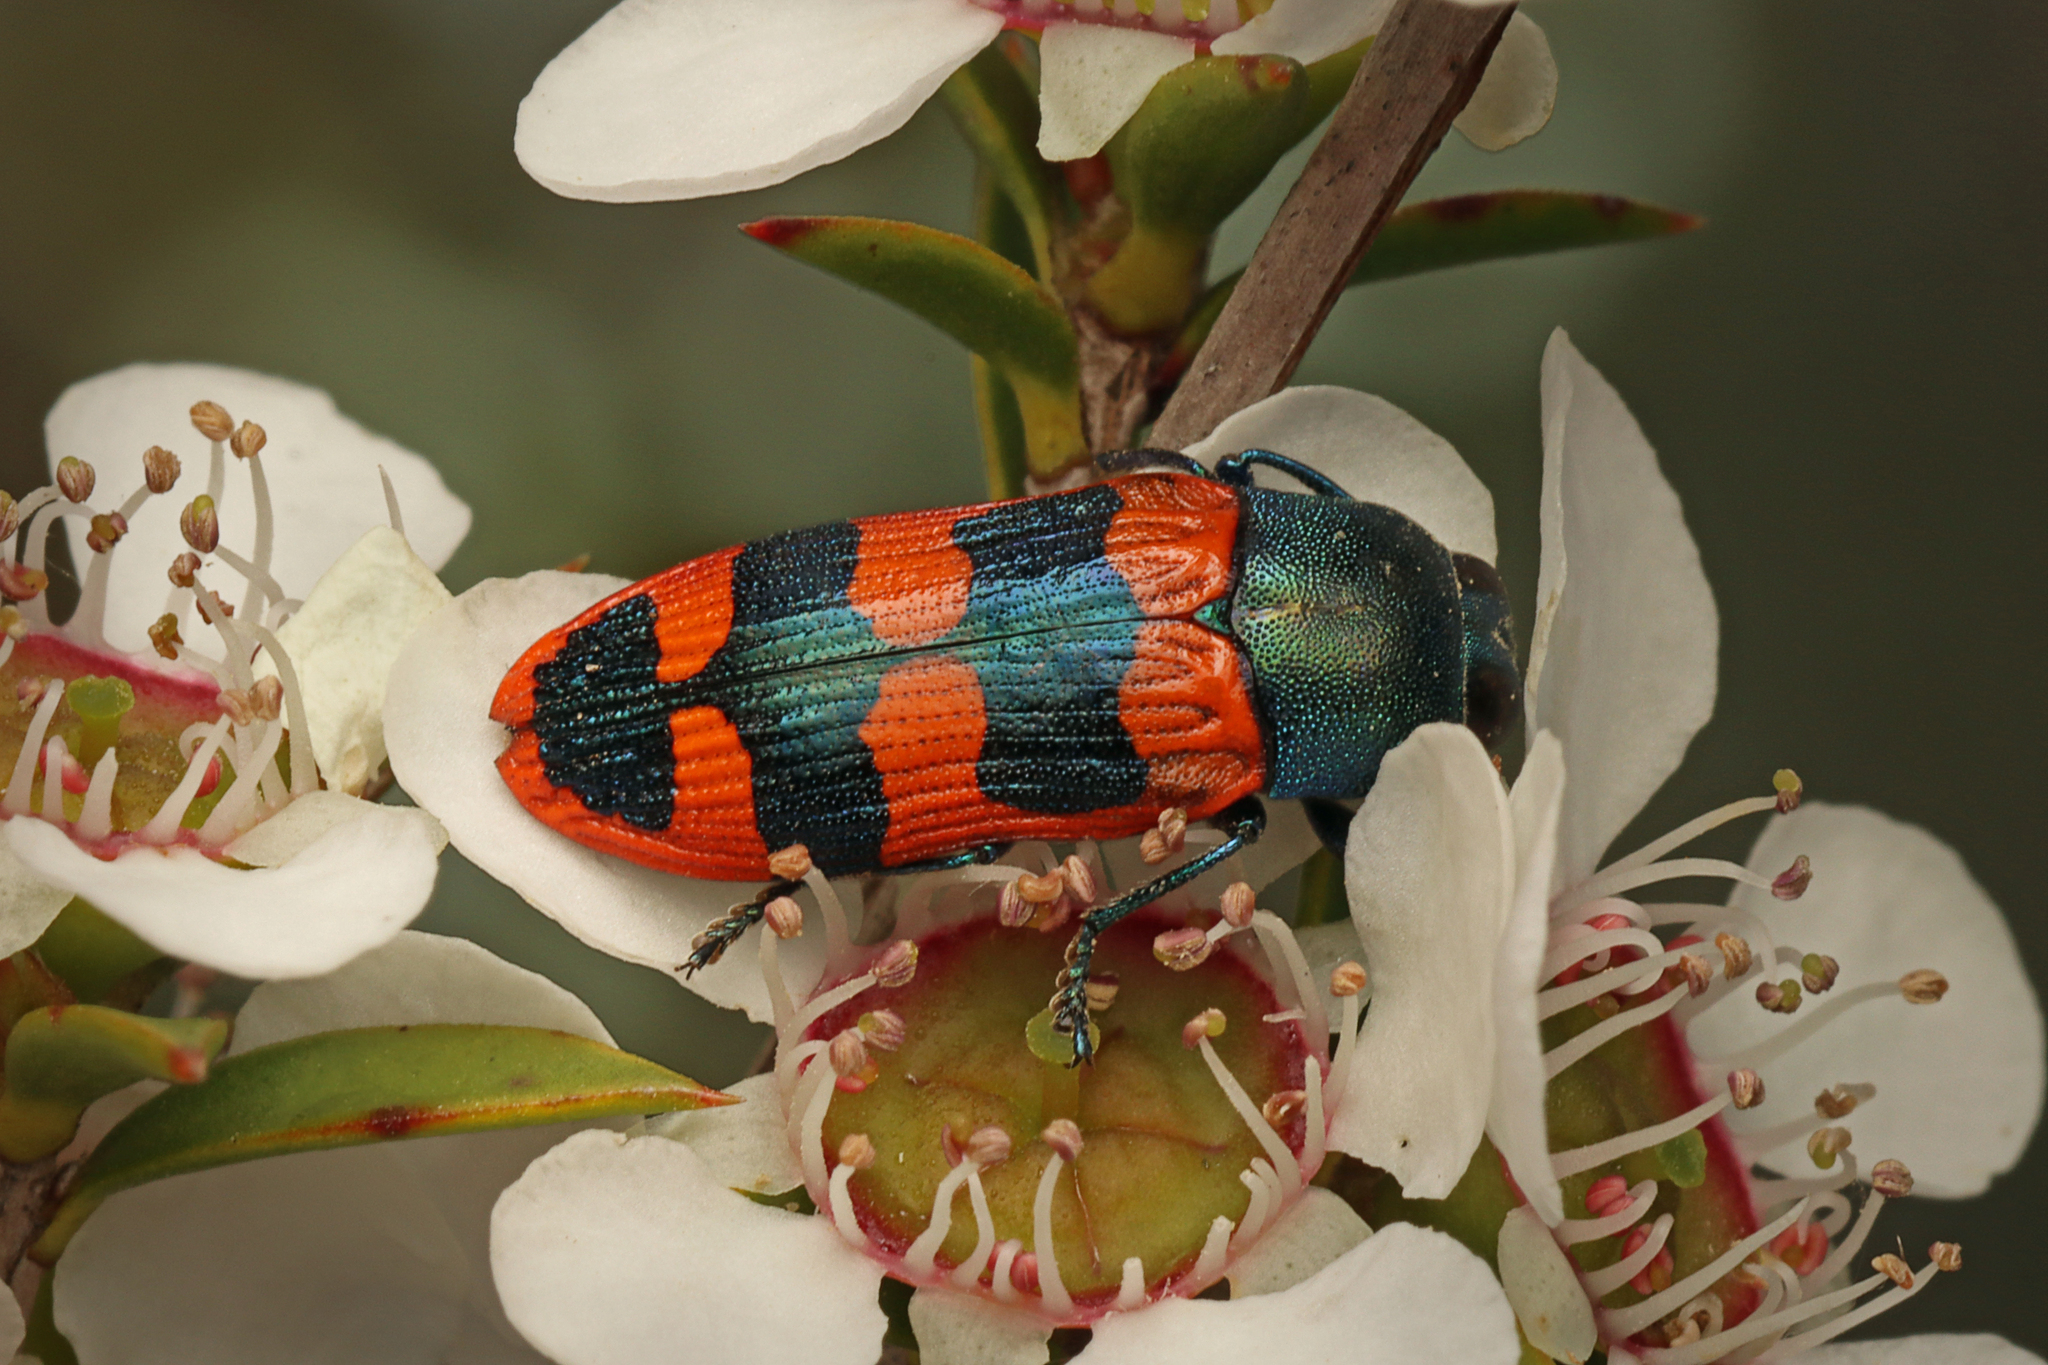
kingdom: Animalia
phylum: Arthropoda
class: Insecta
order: Coleoptera
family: Buprestidae
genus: Castiarina
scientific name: Castiarina crenata
